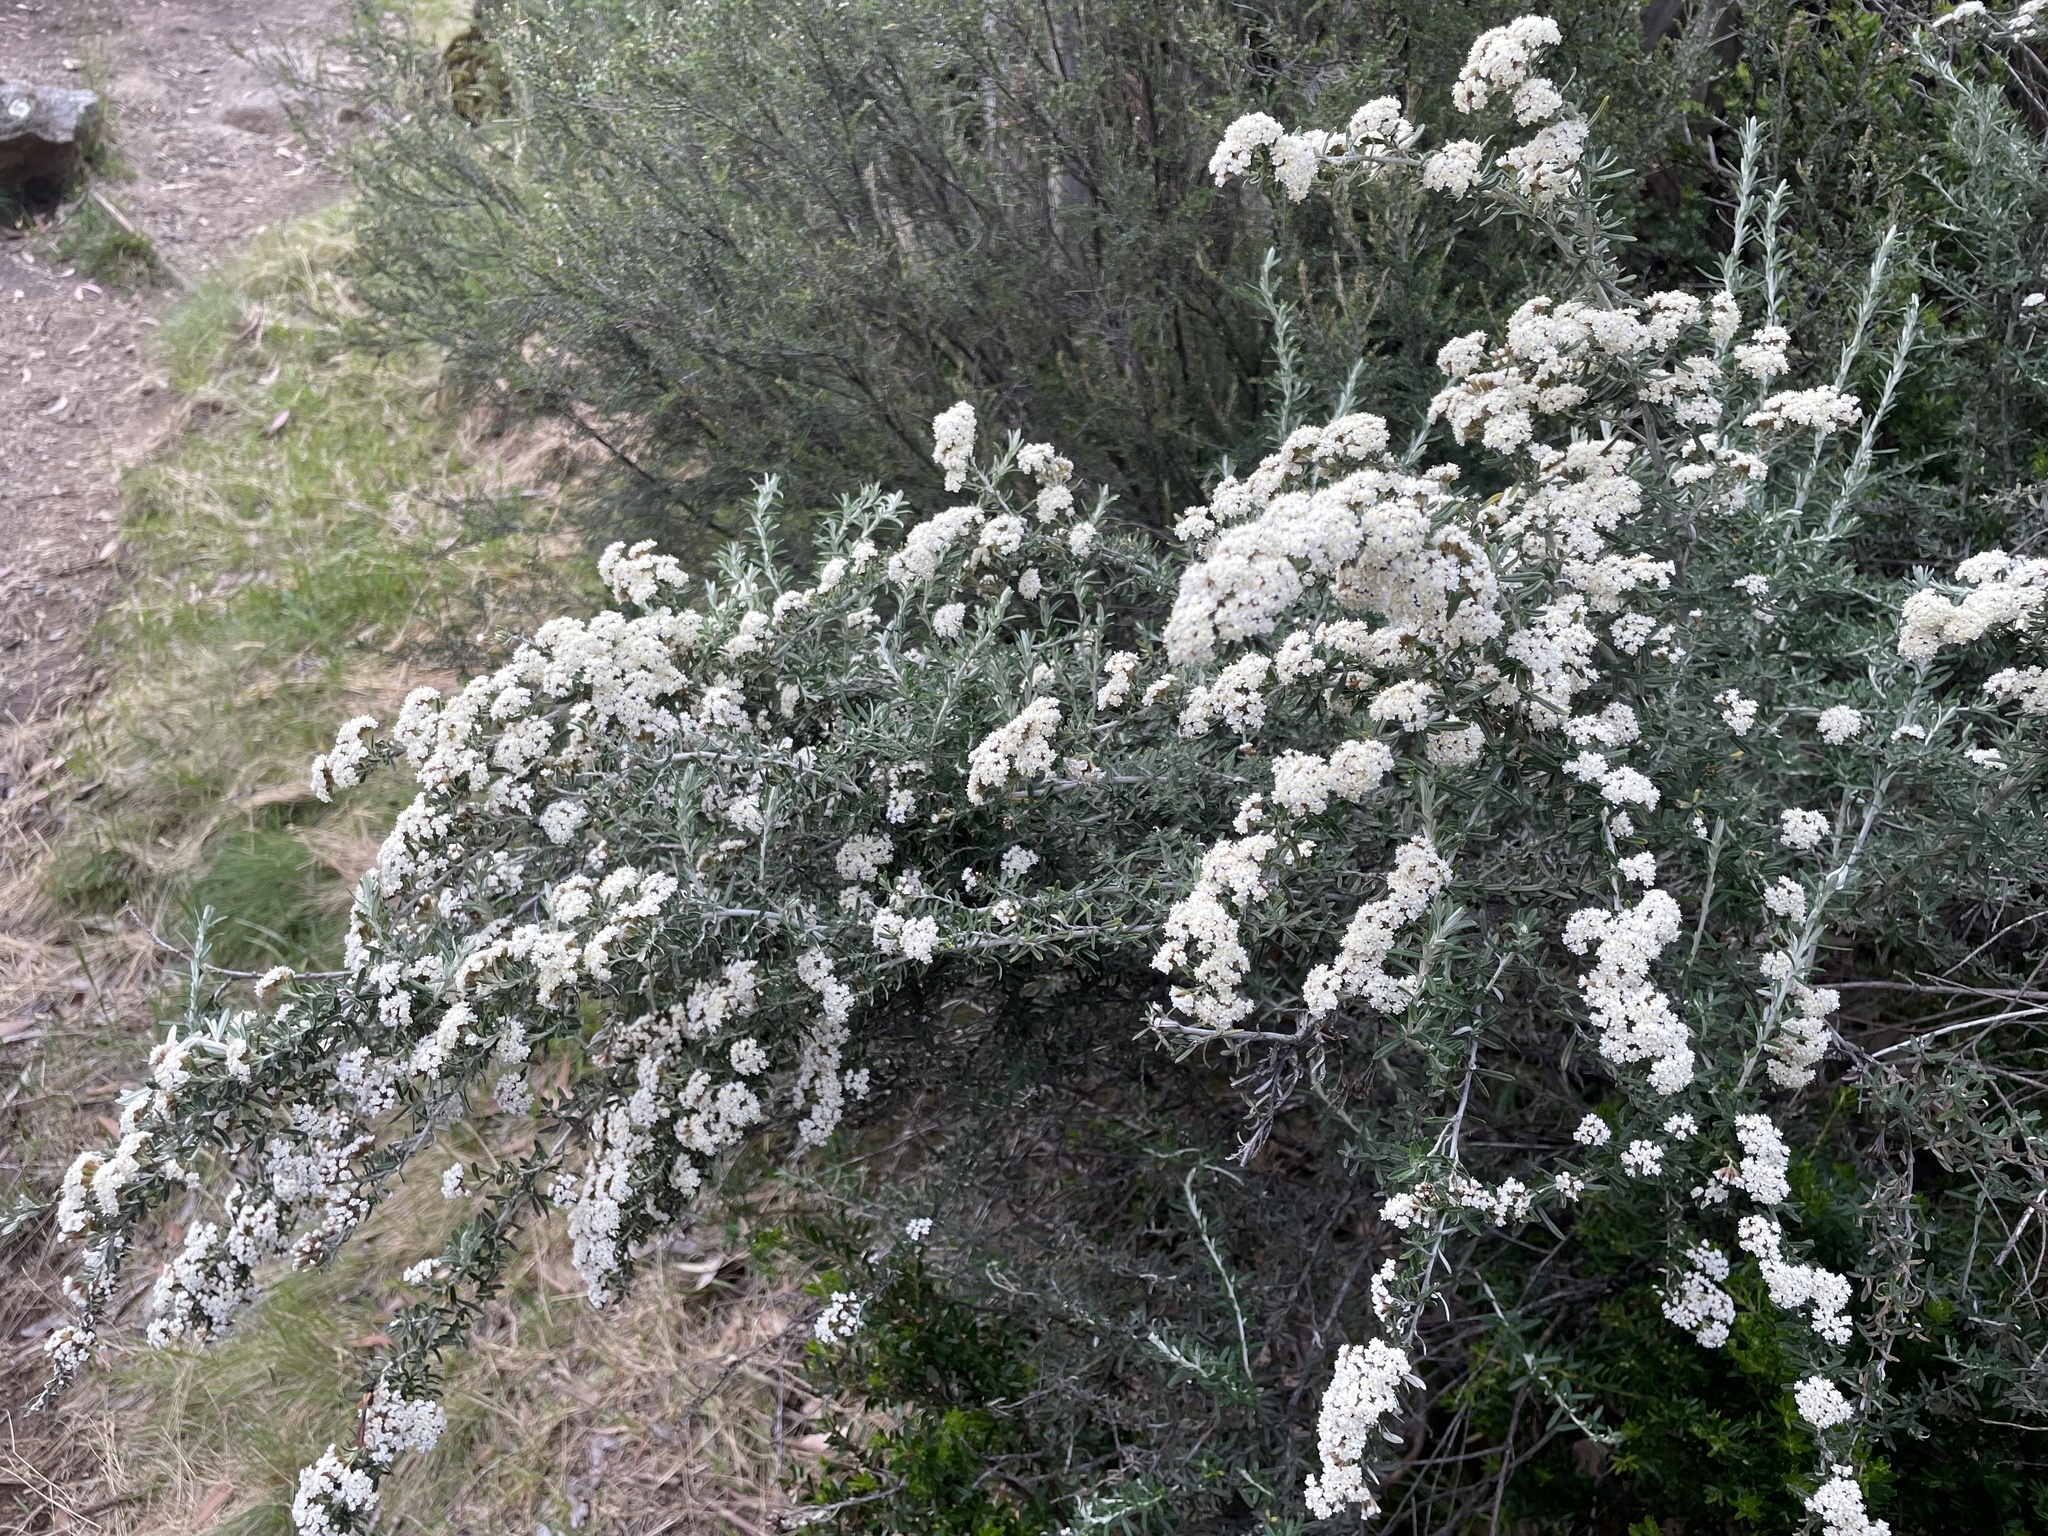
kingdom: Plantae
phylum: Tracheophyta
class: Magnoliopsida
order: Asterales
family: Asteraceae
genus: Ozothamnus
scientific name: Ozothamnus secundiflorus
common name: Cascade everlasting
